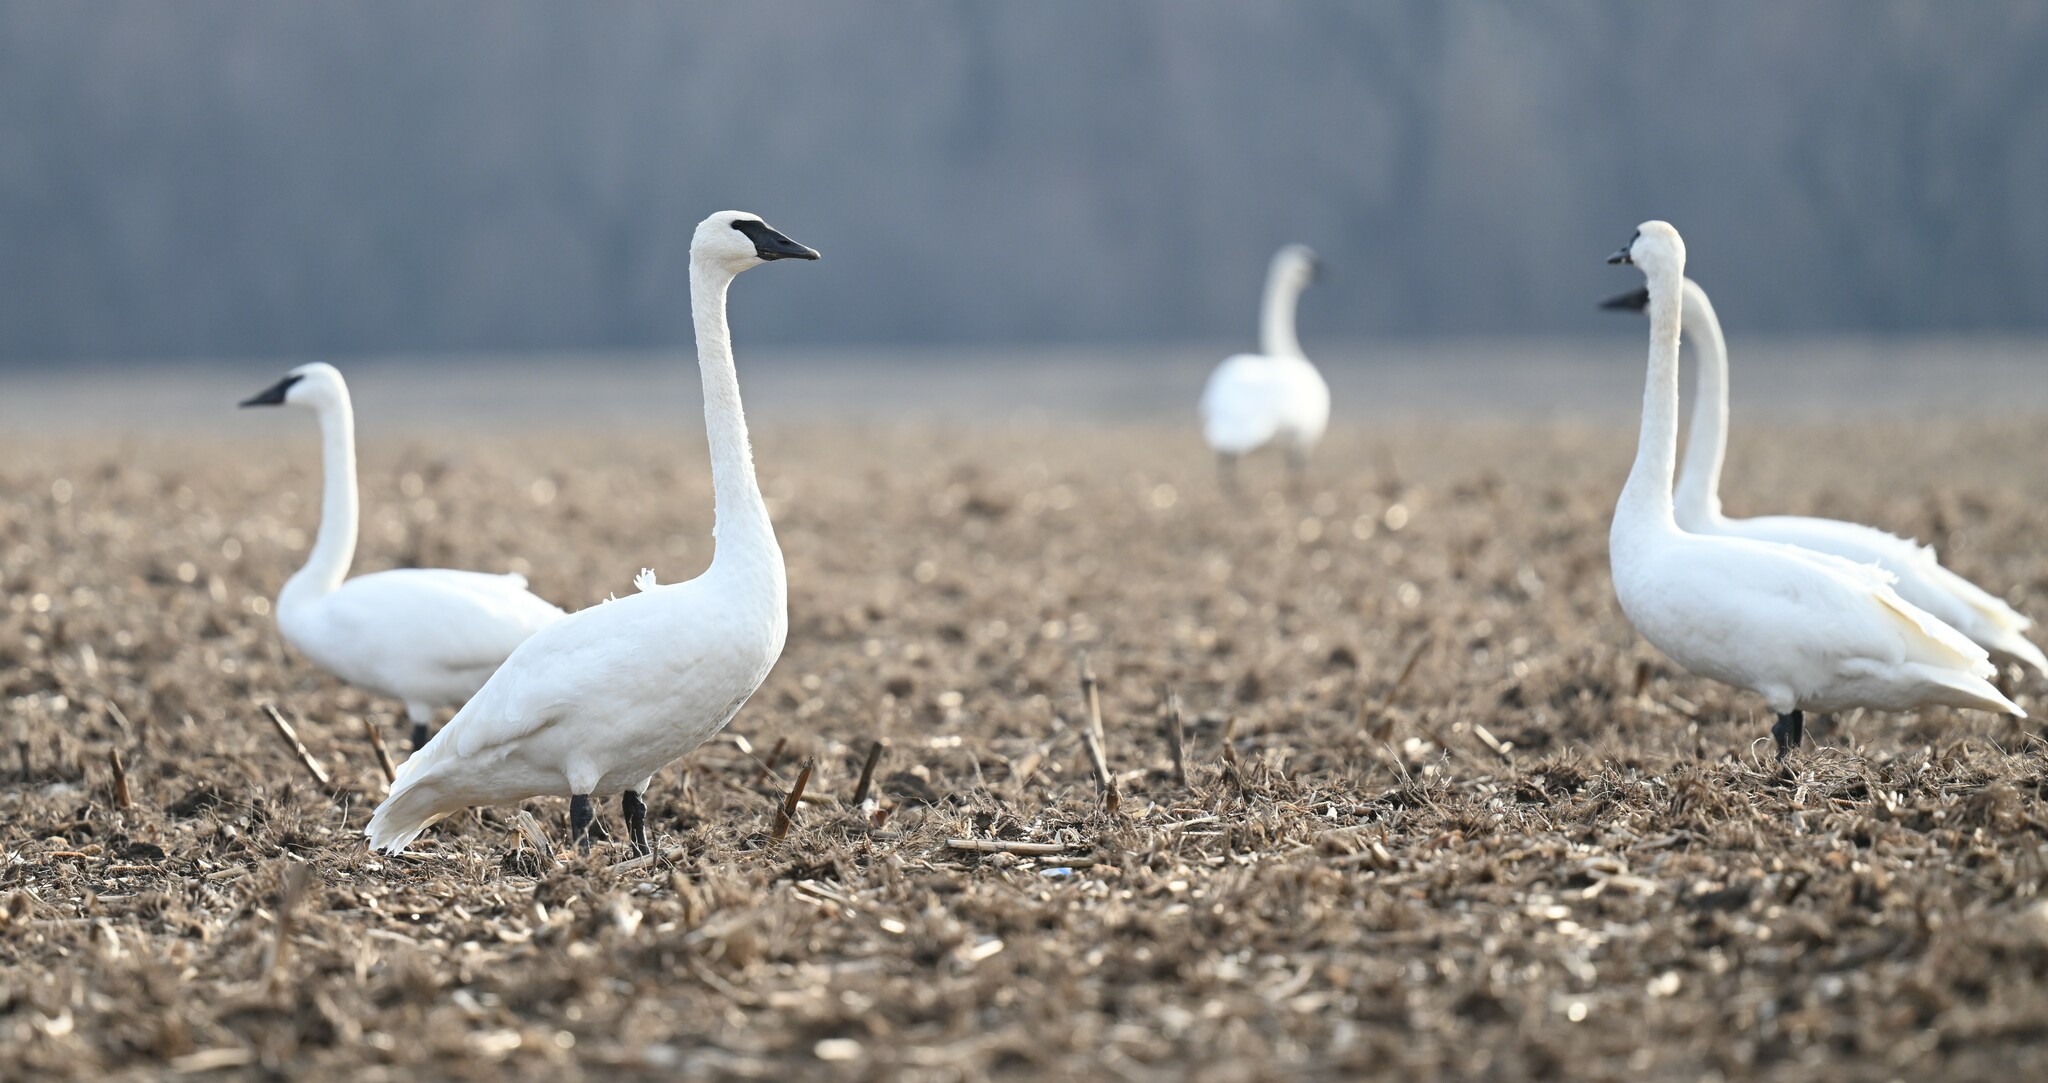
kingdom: Animalia
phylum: Chordata
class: Aves
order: Anseriformes
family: Anatidae
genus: Cygnus
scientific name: Cygnus buccinator
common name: Trumpeter swan
